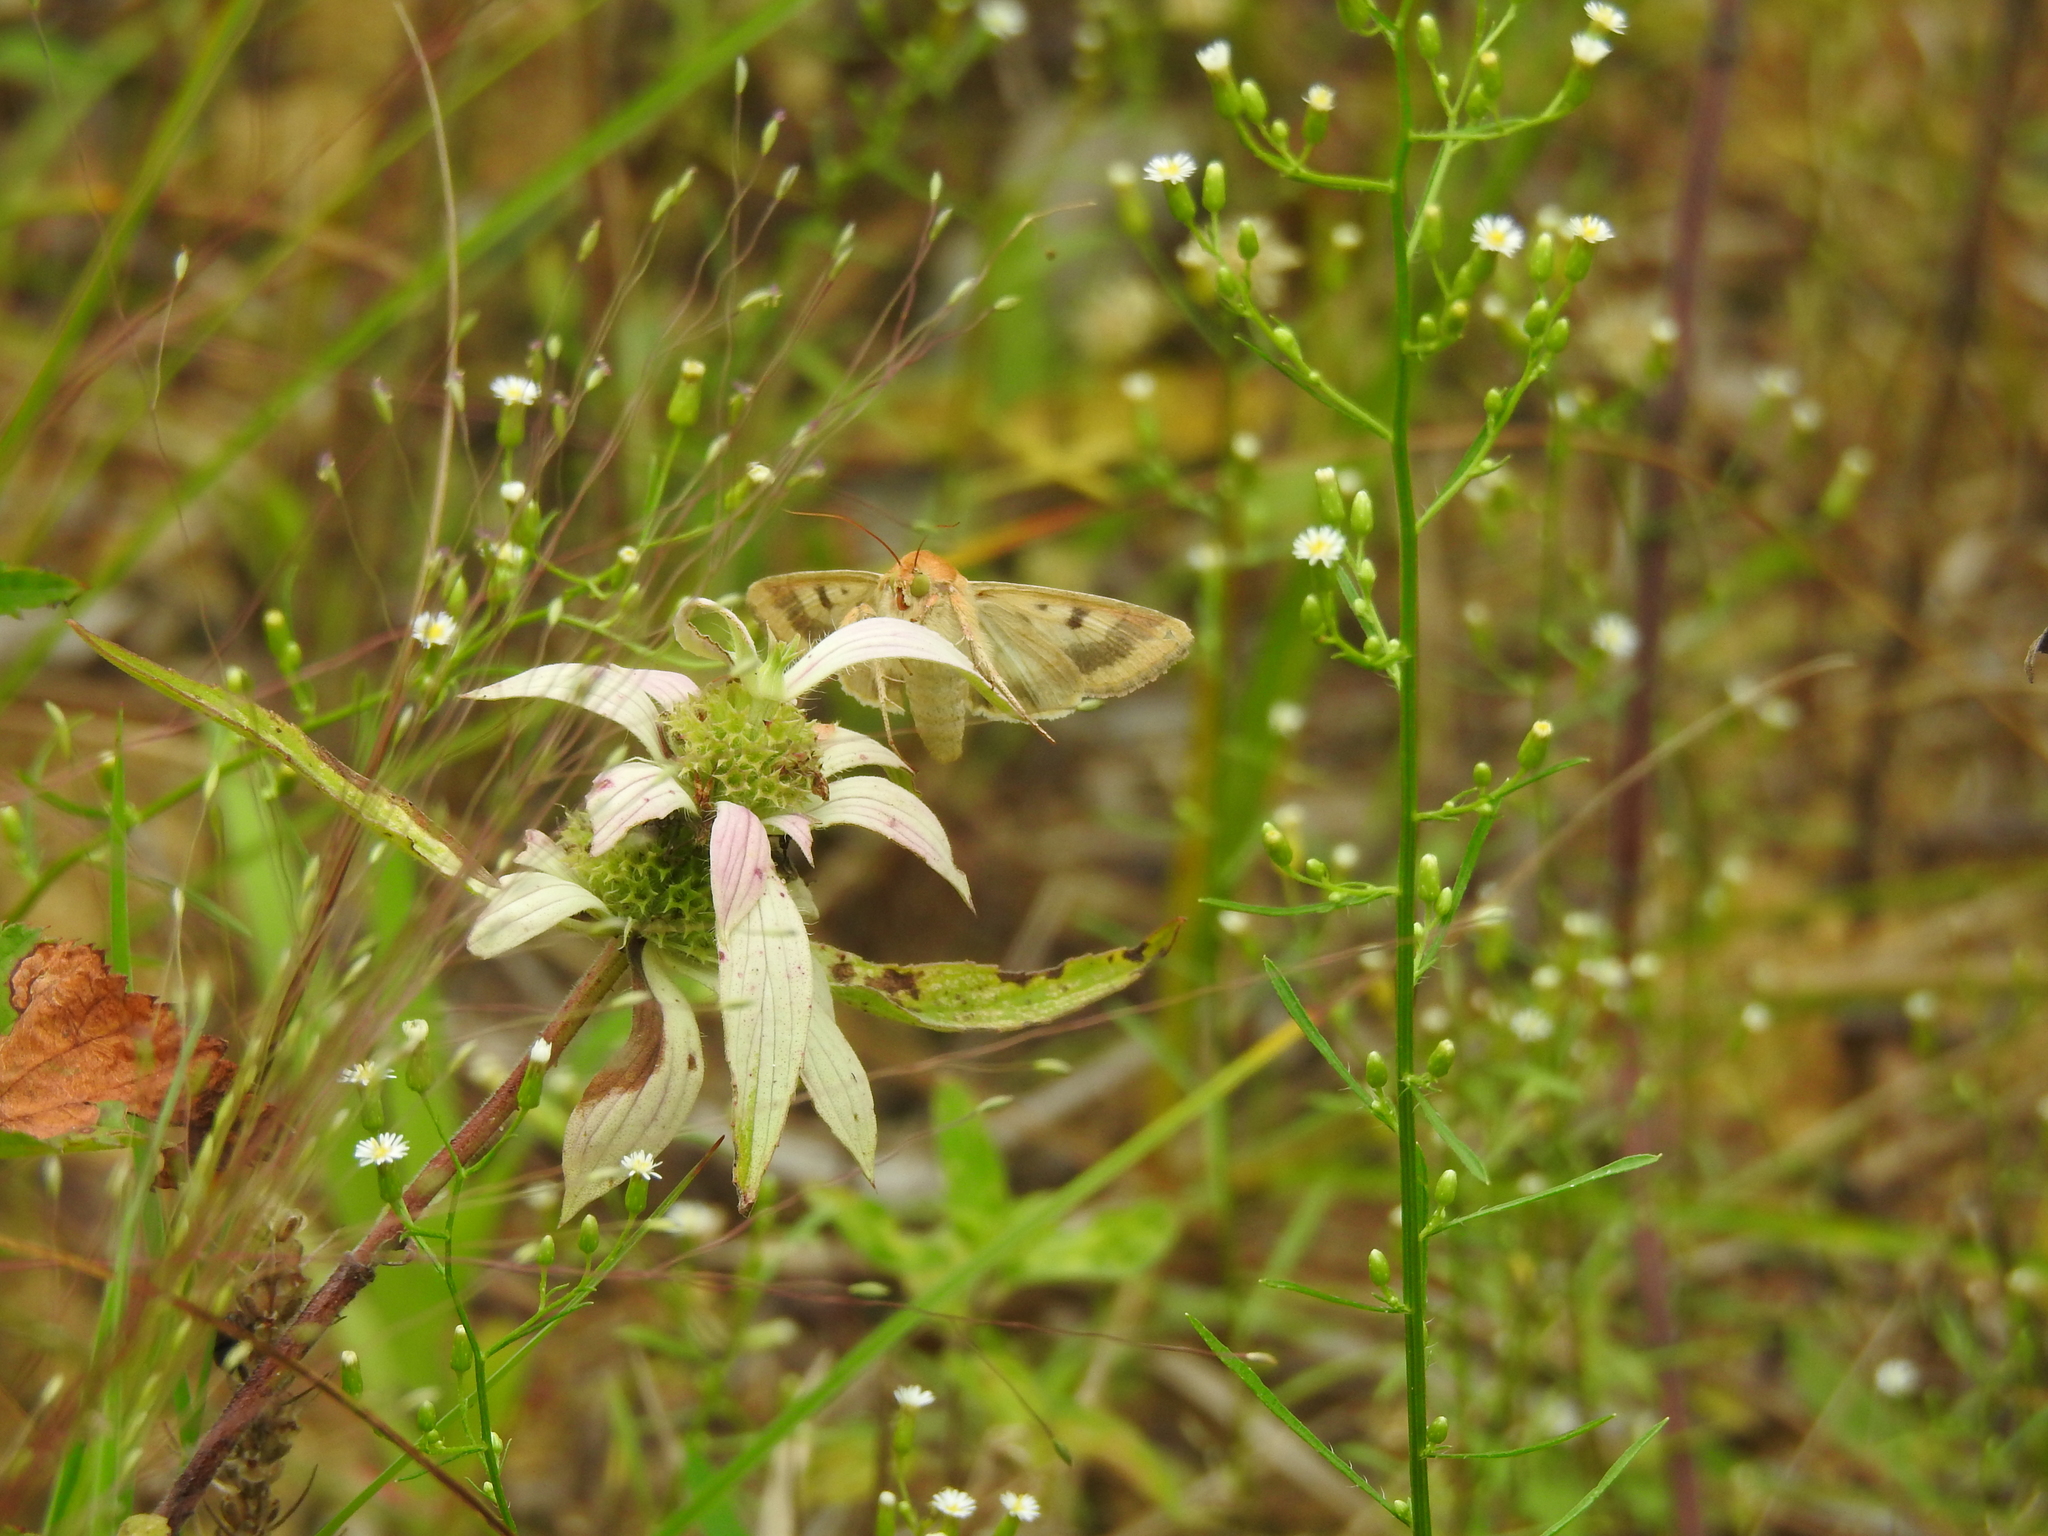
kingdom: Animalia
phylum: Arthropoda
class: Insecta
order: Lepidoptera
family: Noctuidae
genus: Helicoverpa
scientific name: Helicoverpa zea
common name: Bollworm
